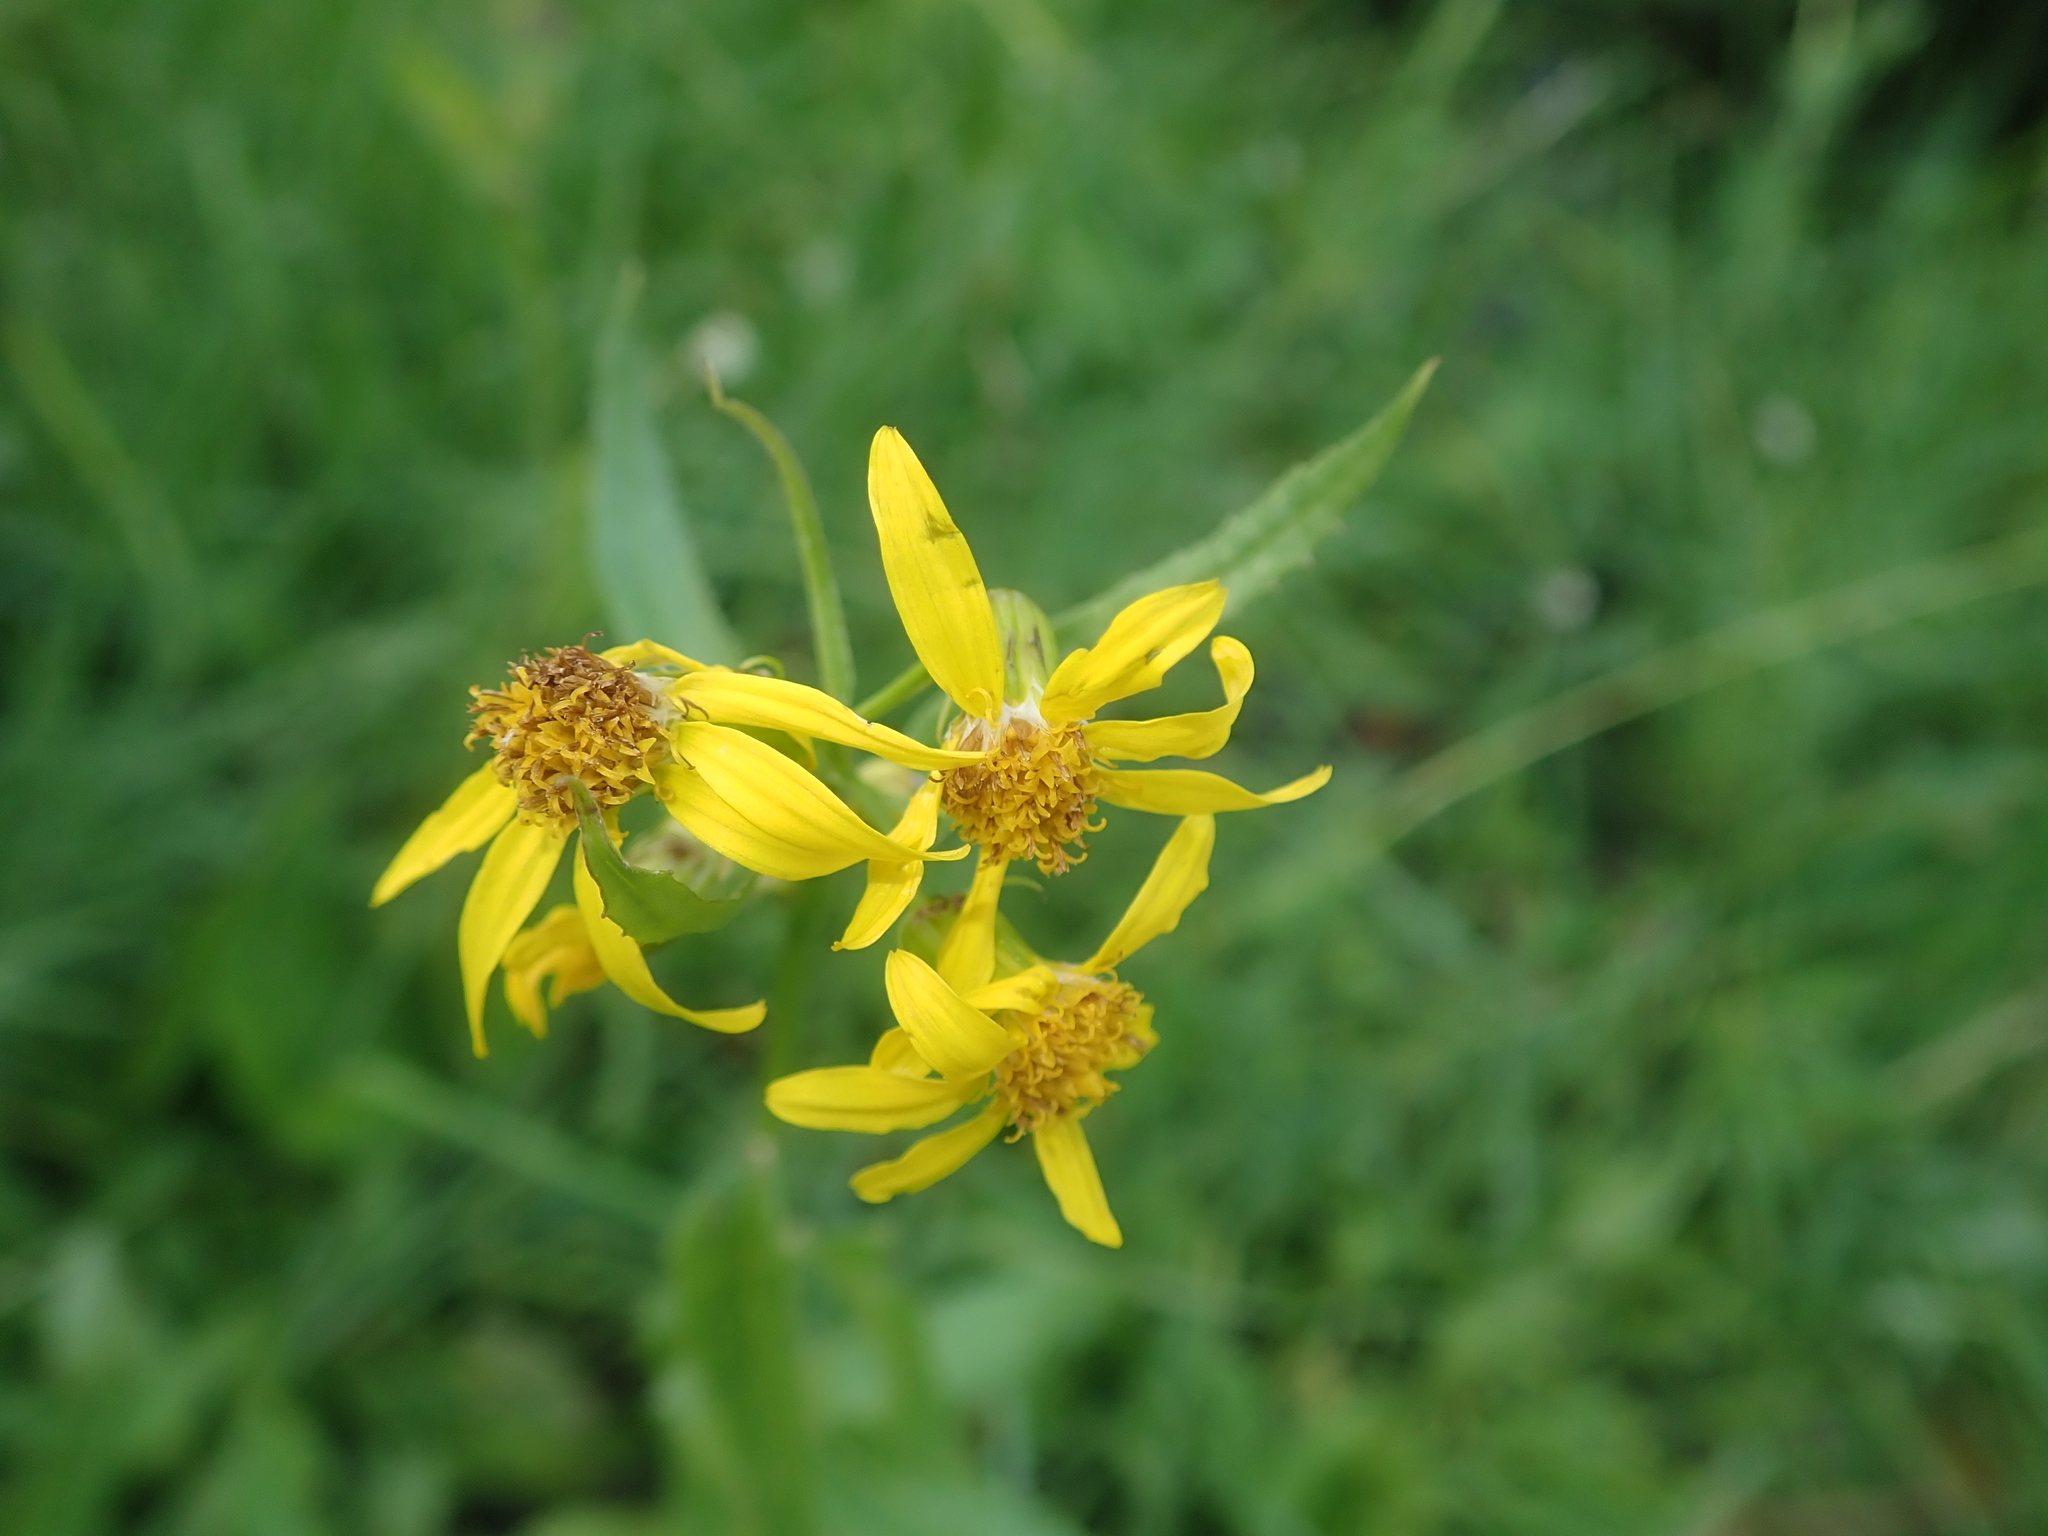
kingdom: Plantae
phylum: Tracheophyta
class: Magnoliopsida
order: Asterales
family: Asteraceae
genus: Senecio
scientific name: Senecio triangularis
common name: Arrowleaf butterweed
